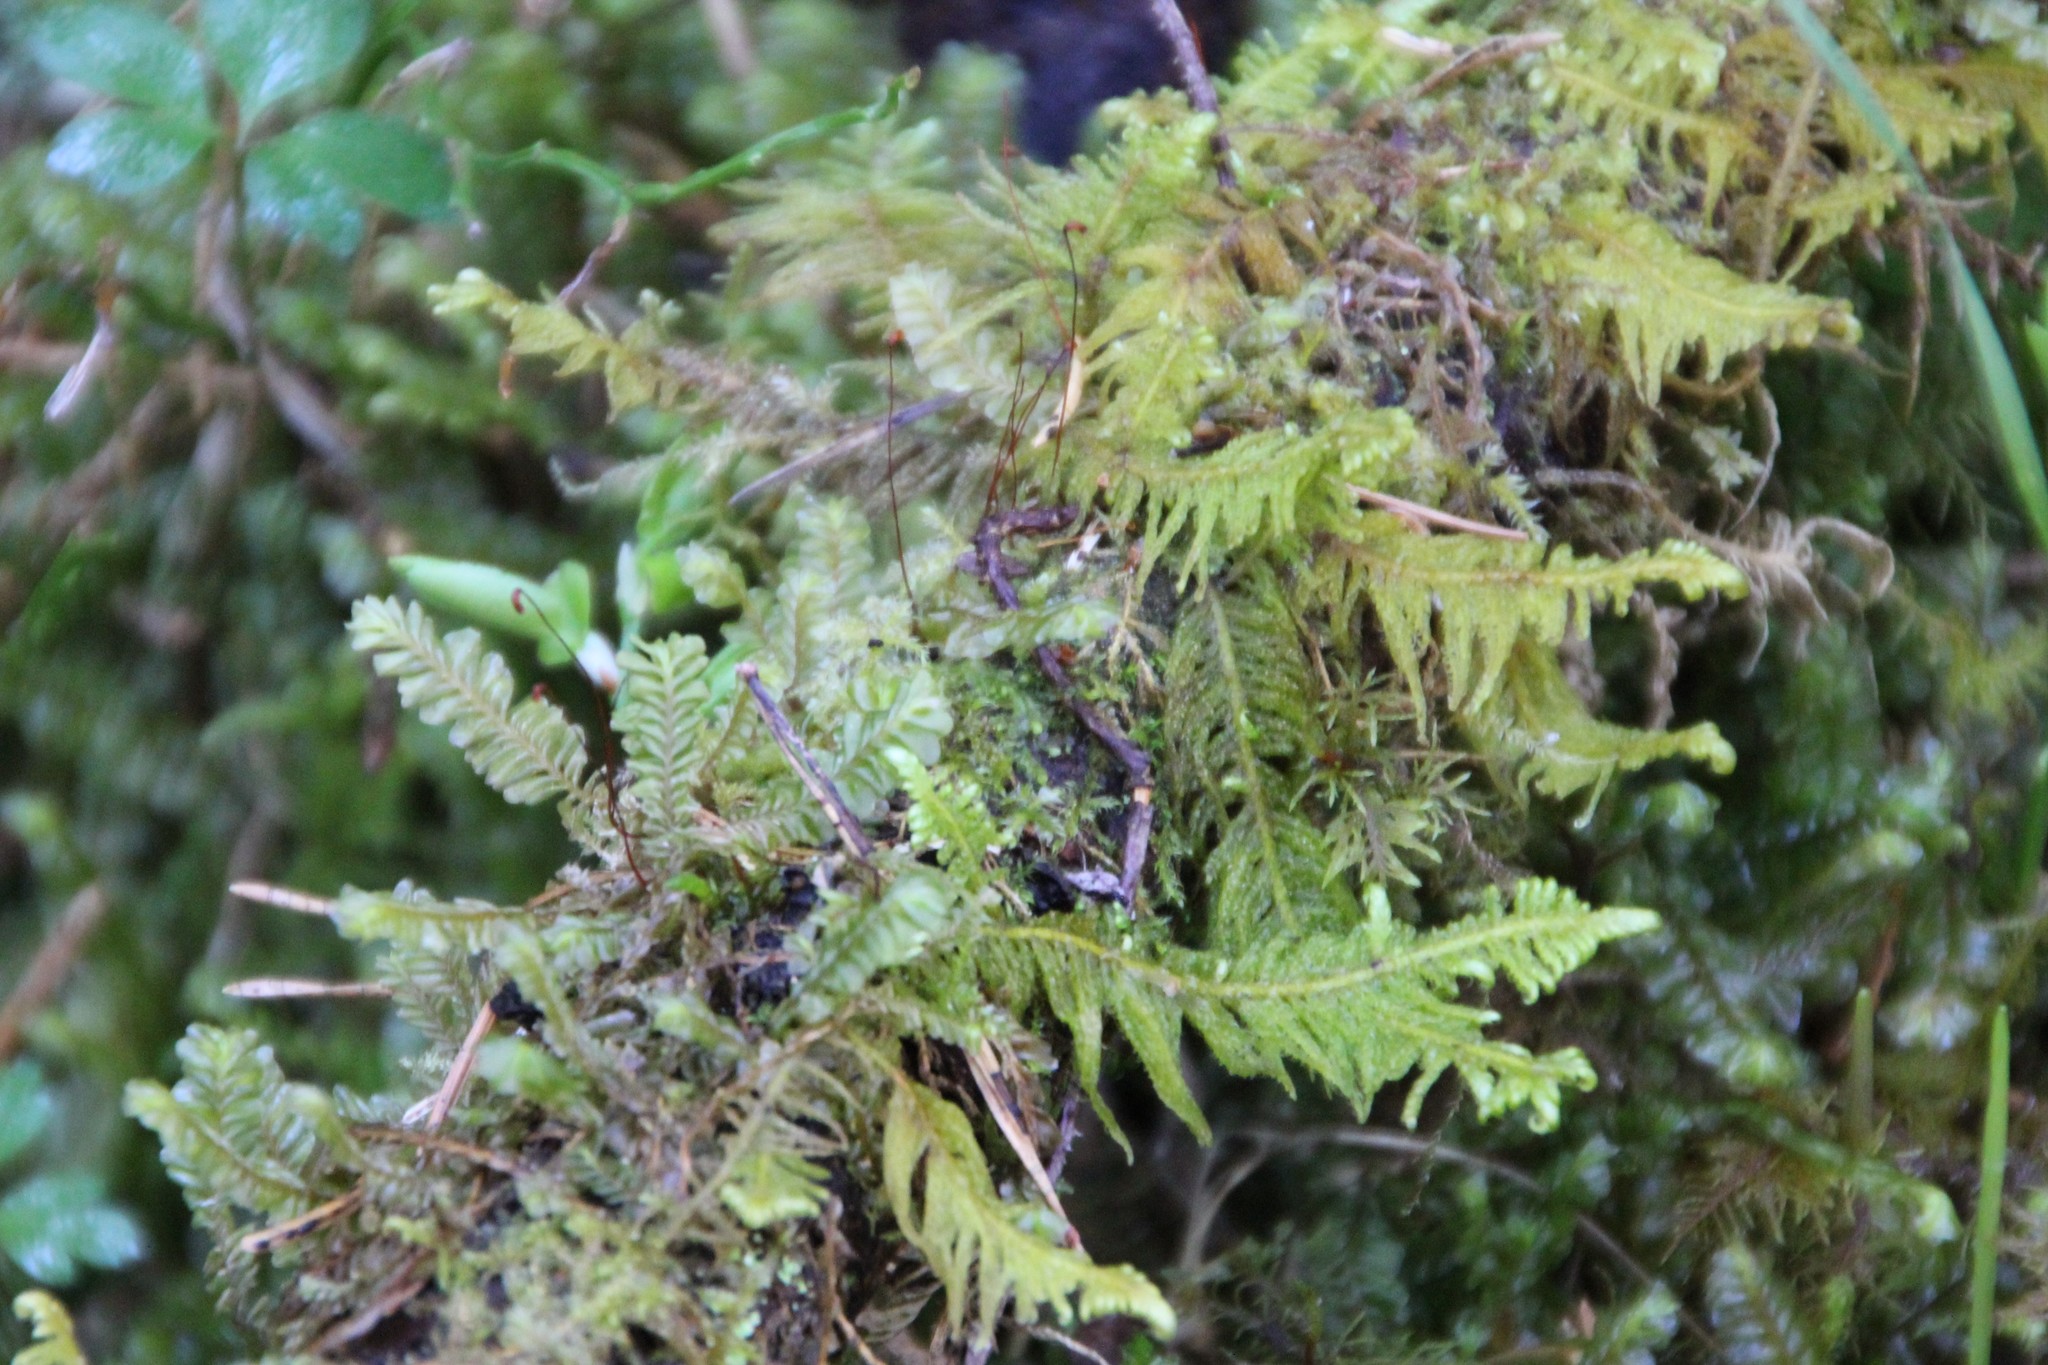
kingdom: Plantae
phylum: Bryophyta
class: Bryopsida
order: Hypnales
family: Pylaisiaceae
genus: Ptilium
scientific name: Ptilium crista-castrensis
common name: Knight's plume moss
